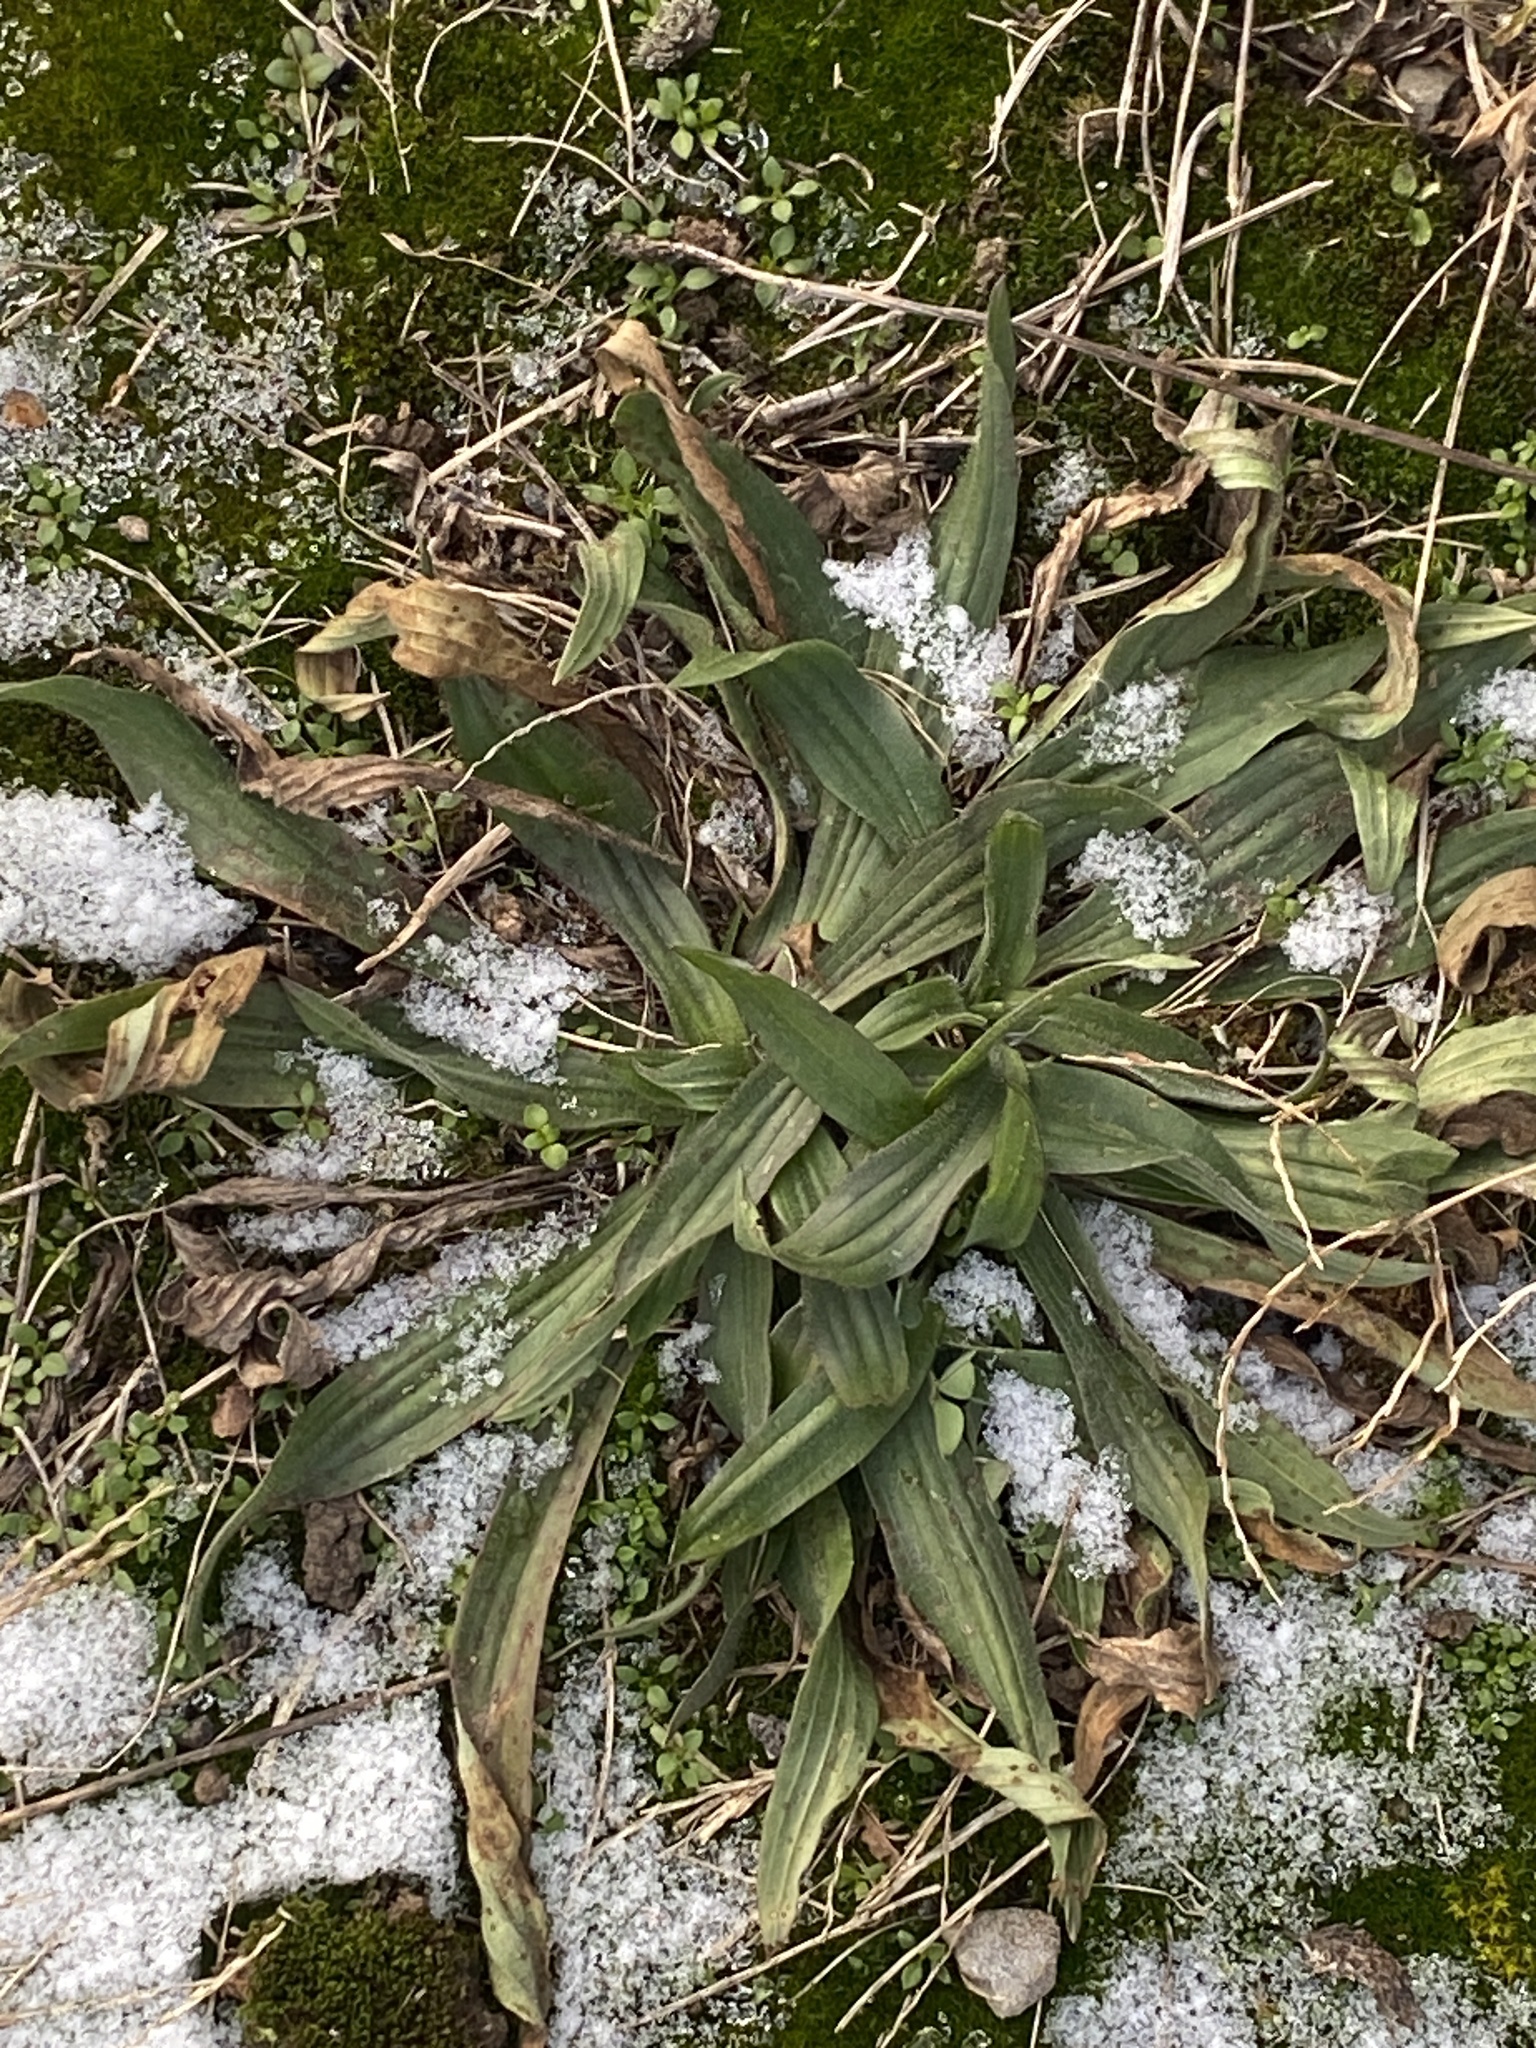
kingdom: Plantae
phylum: Tracheophyta
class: Magnoliopsida
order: Lamiales
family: Plantaginaceae
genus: Plantago
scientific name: Plantago lanceolata
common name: Ribwort plantain
